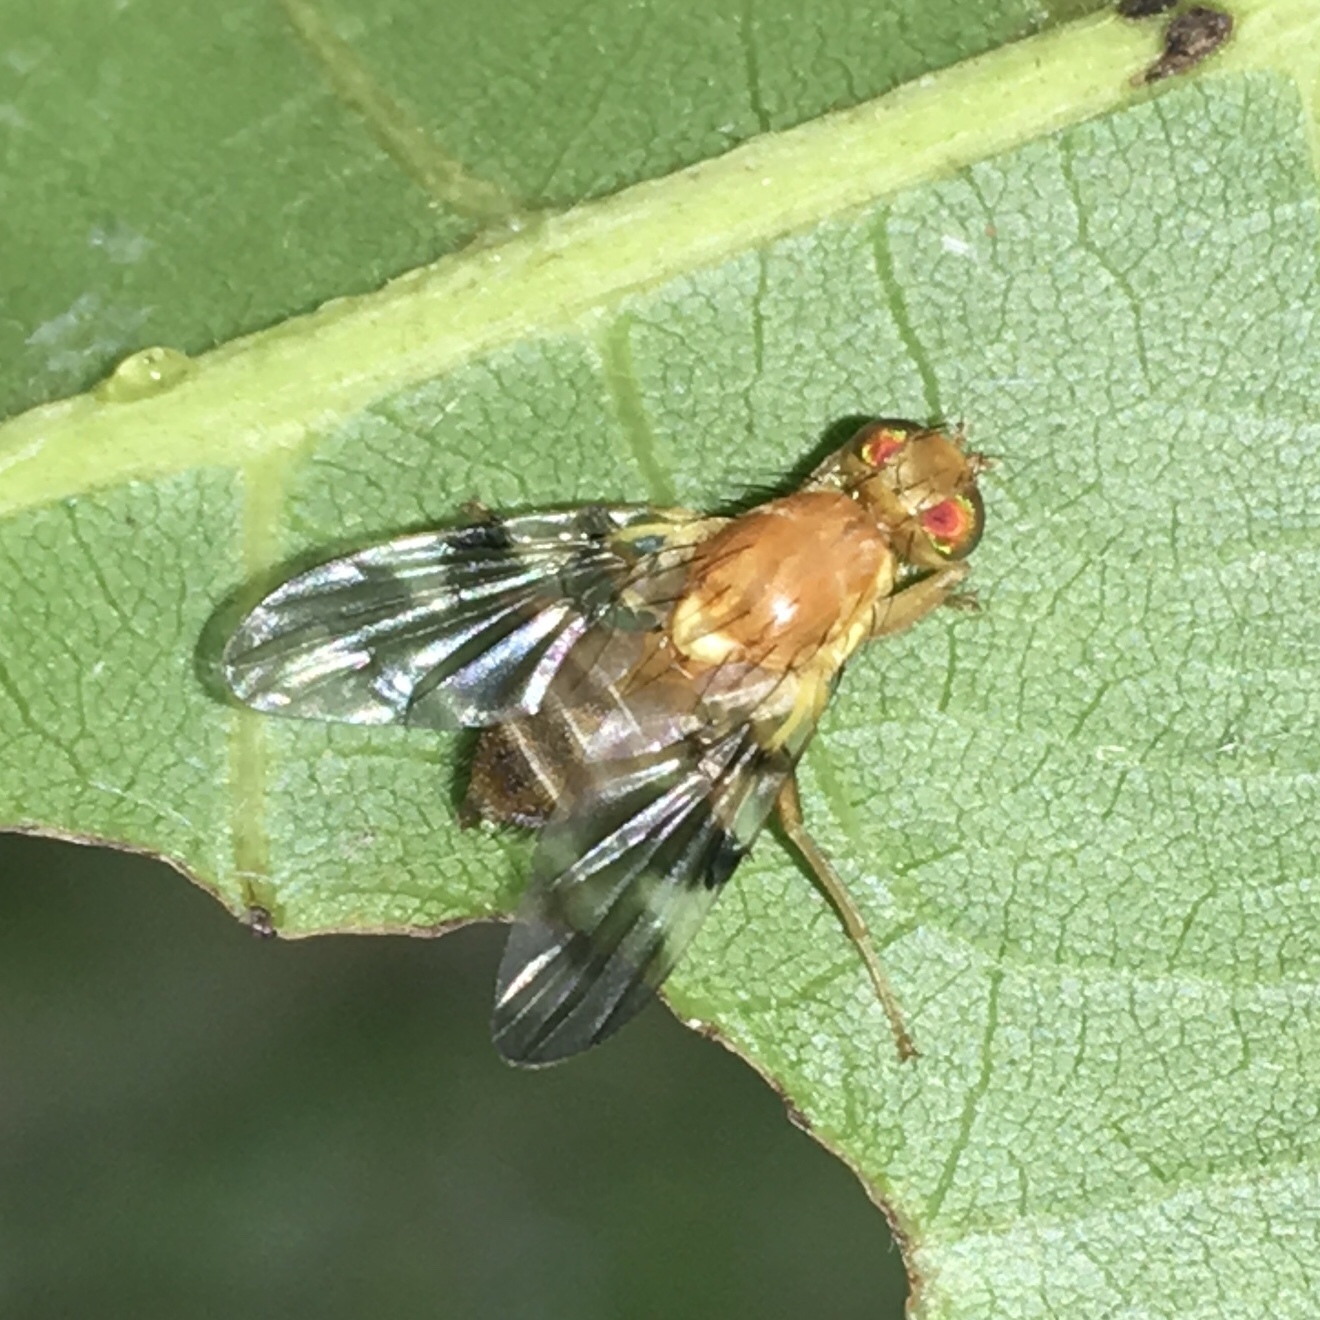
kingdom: Animalia
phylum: Arthropoda
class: Insecta
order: Diptera
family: Tephritidae
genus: Rhagoletis
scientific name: Rhagoletis suavis
